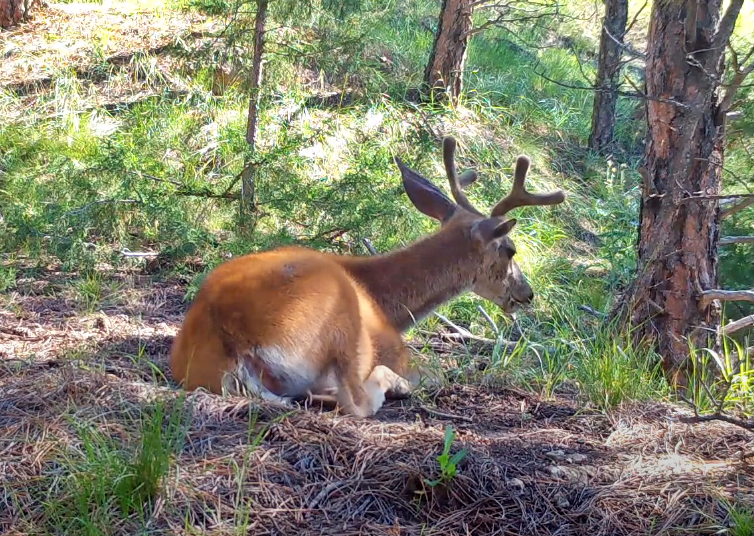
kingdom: Animalia
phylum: Chordata
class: Mammalia
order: Artiodactyla
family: Cervidae
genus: Odocoileus
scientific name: Odocoileus hemionus
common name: Mule deer
